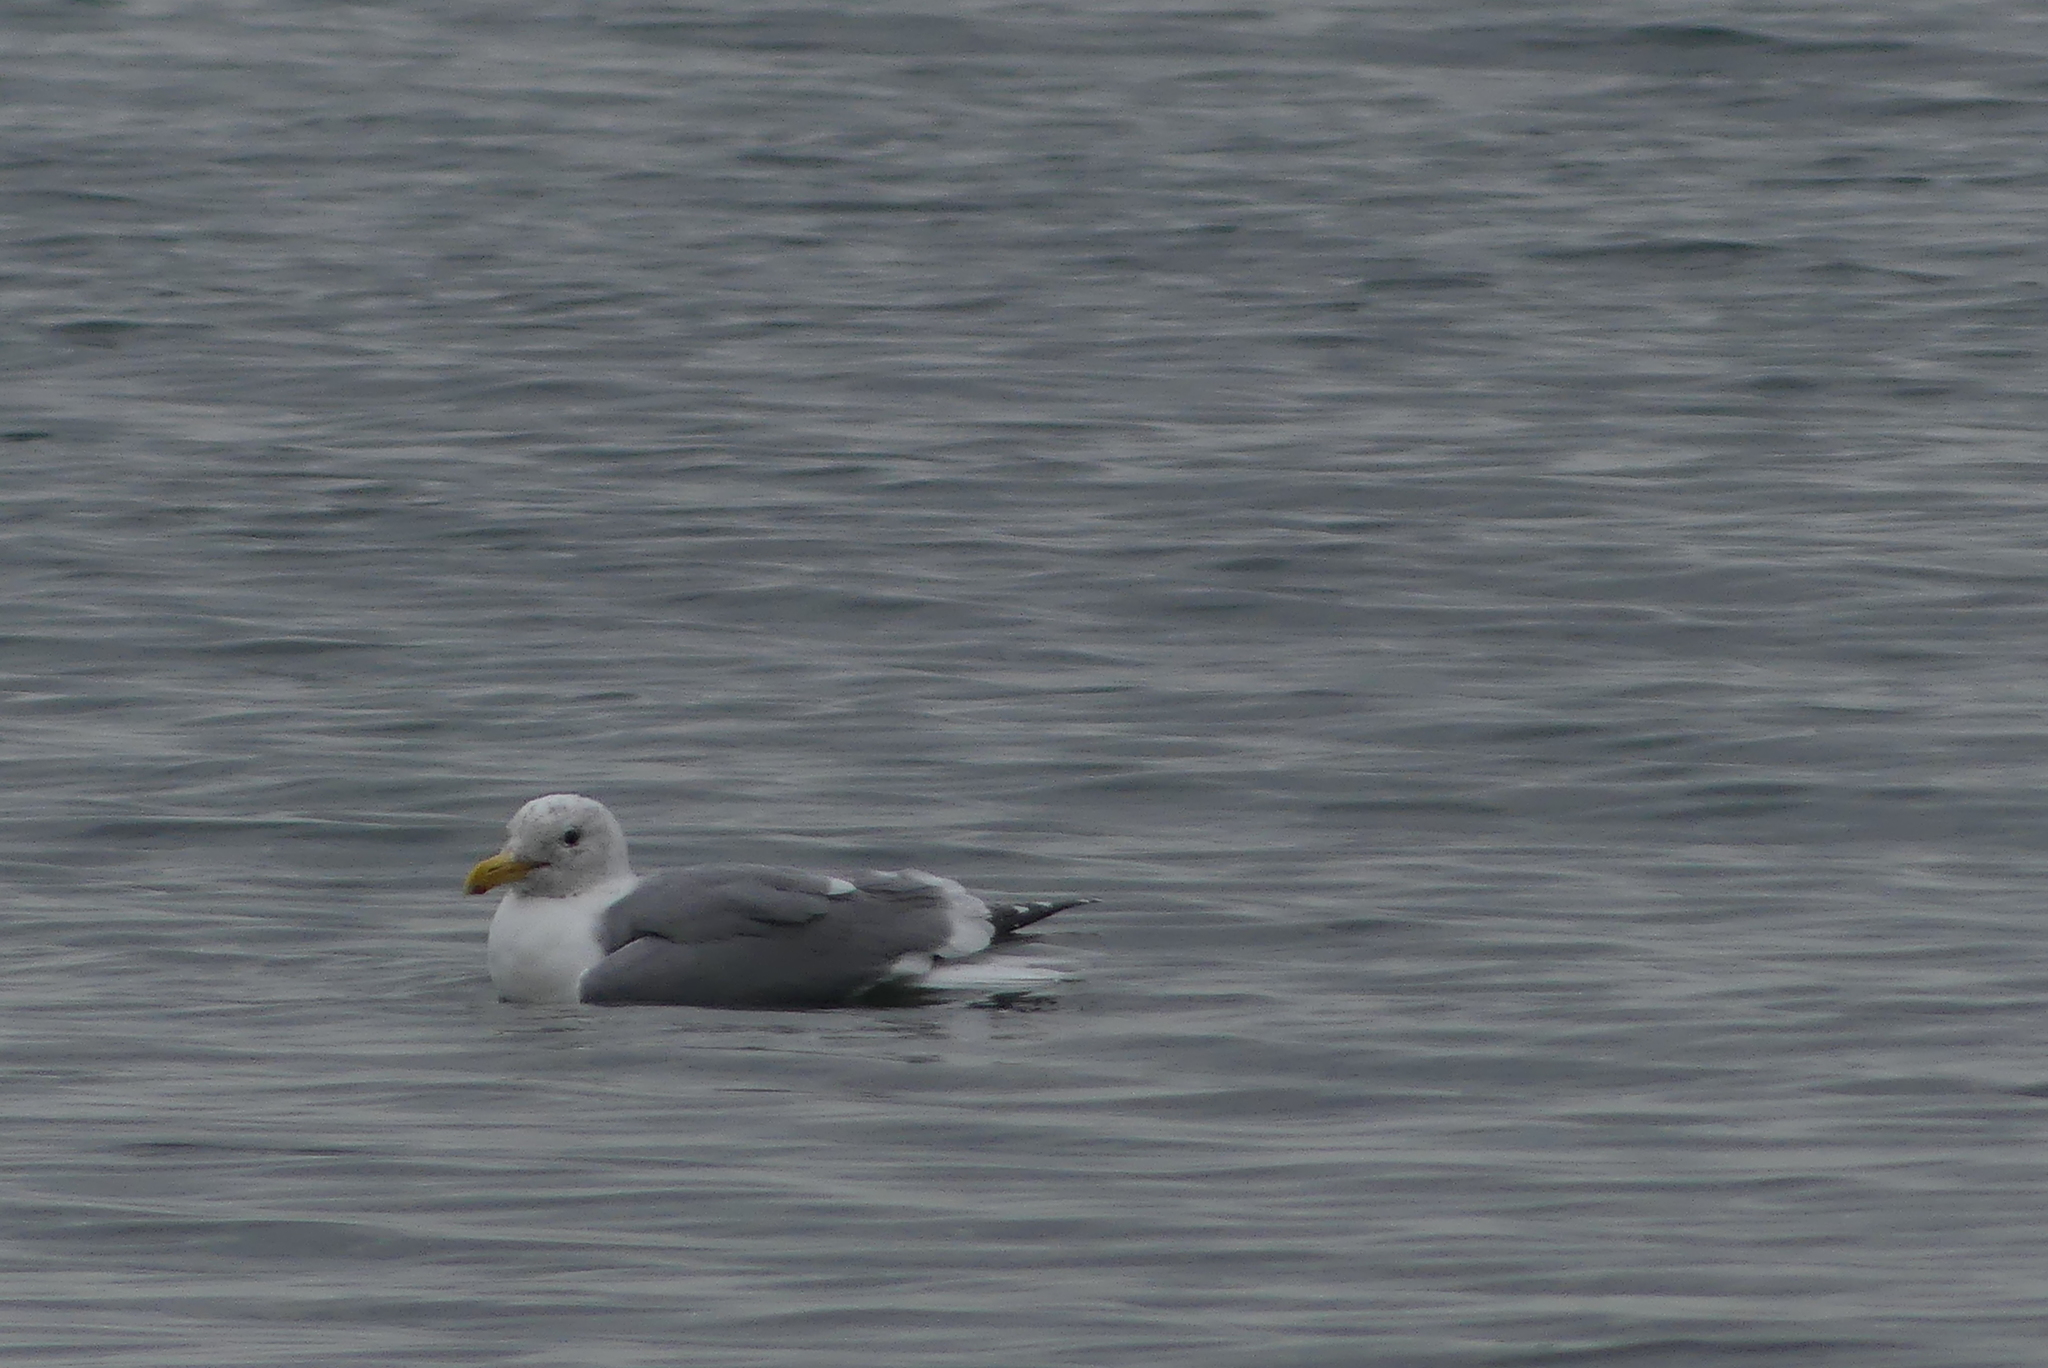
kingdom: Animalia
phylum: Chordata
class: Aves
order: Charadriiformes
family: Laridae
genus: Larus
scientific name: Larus
